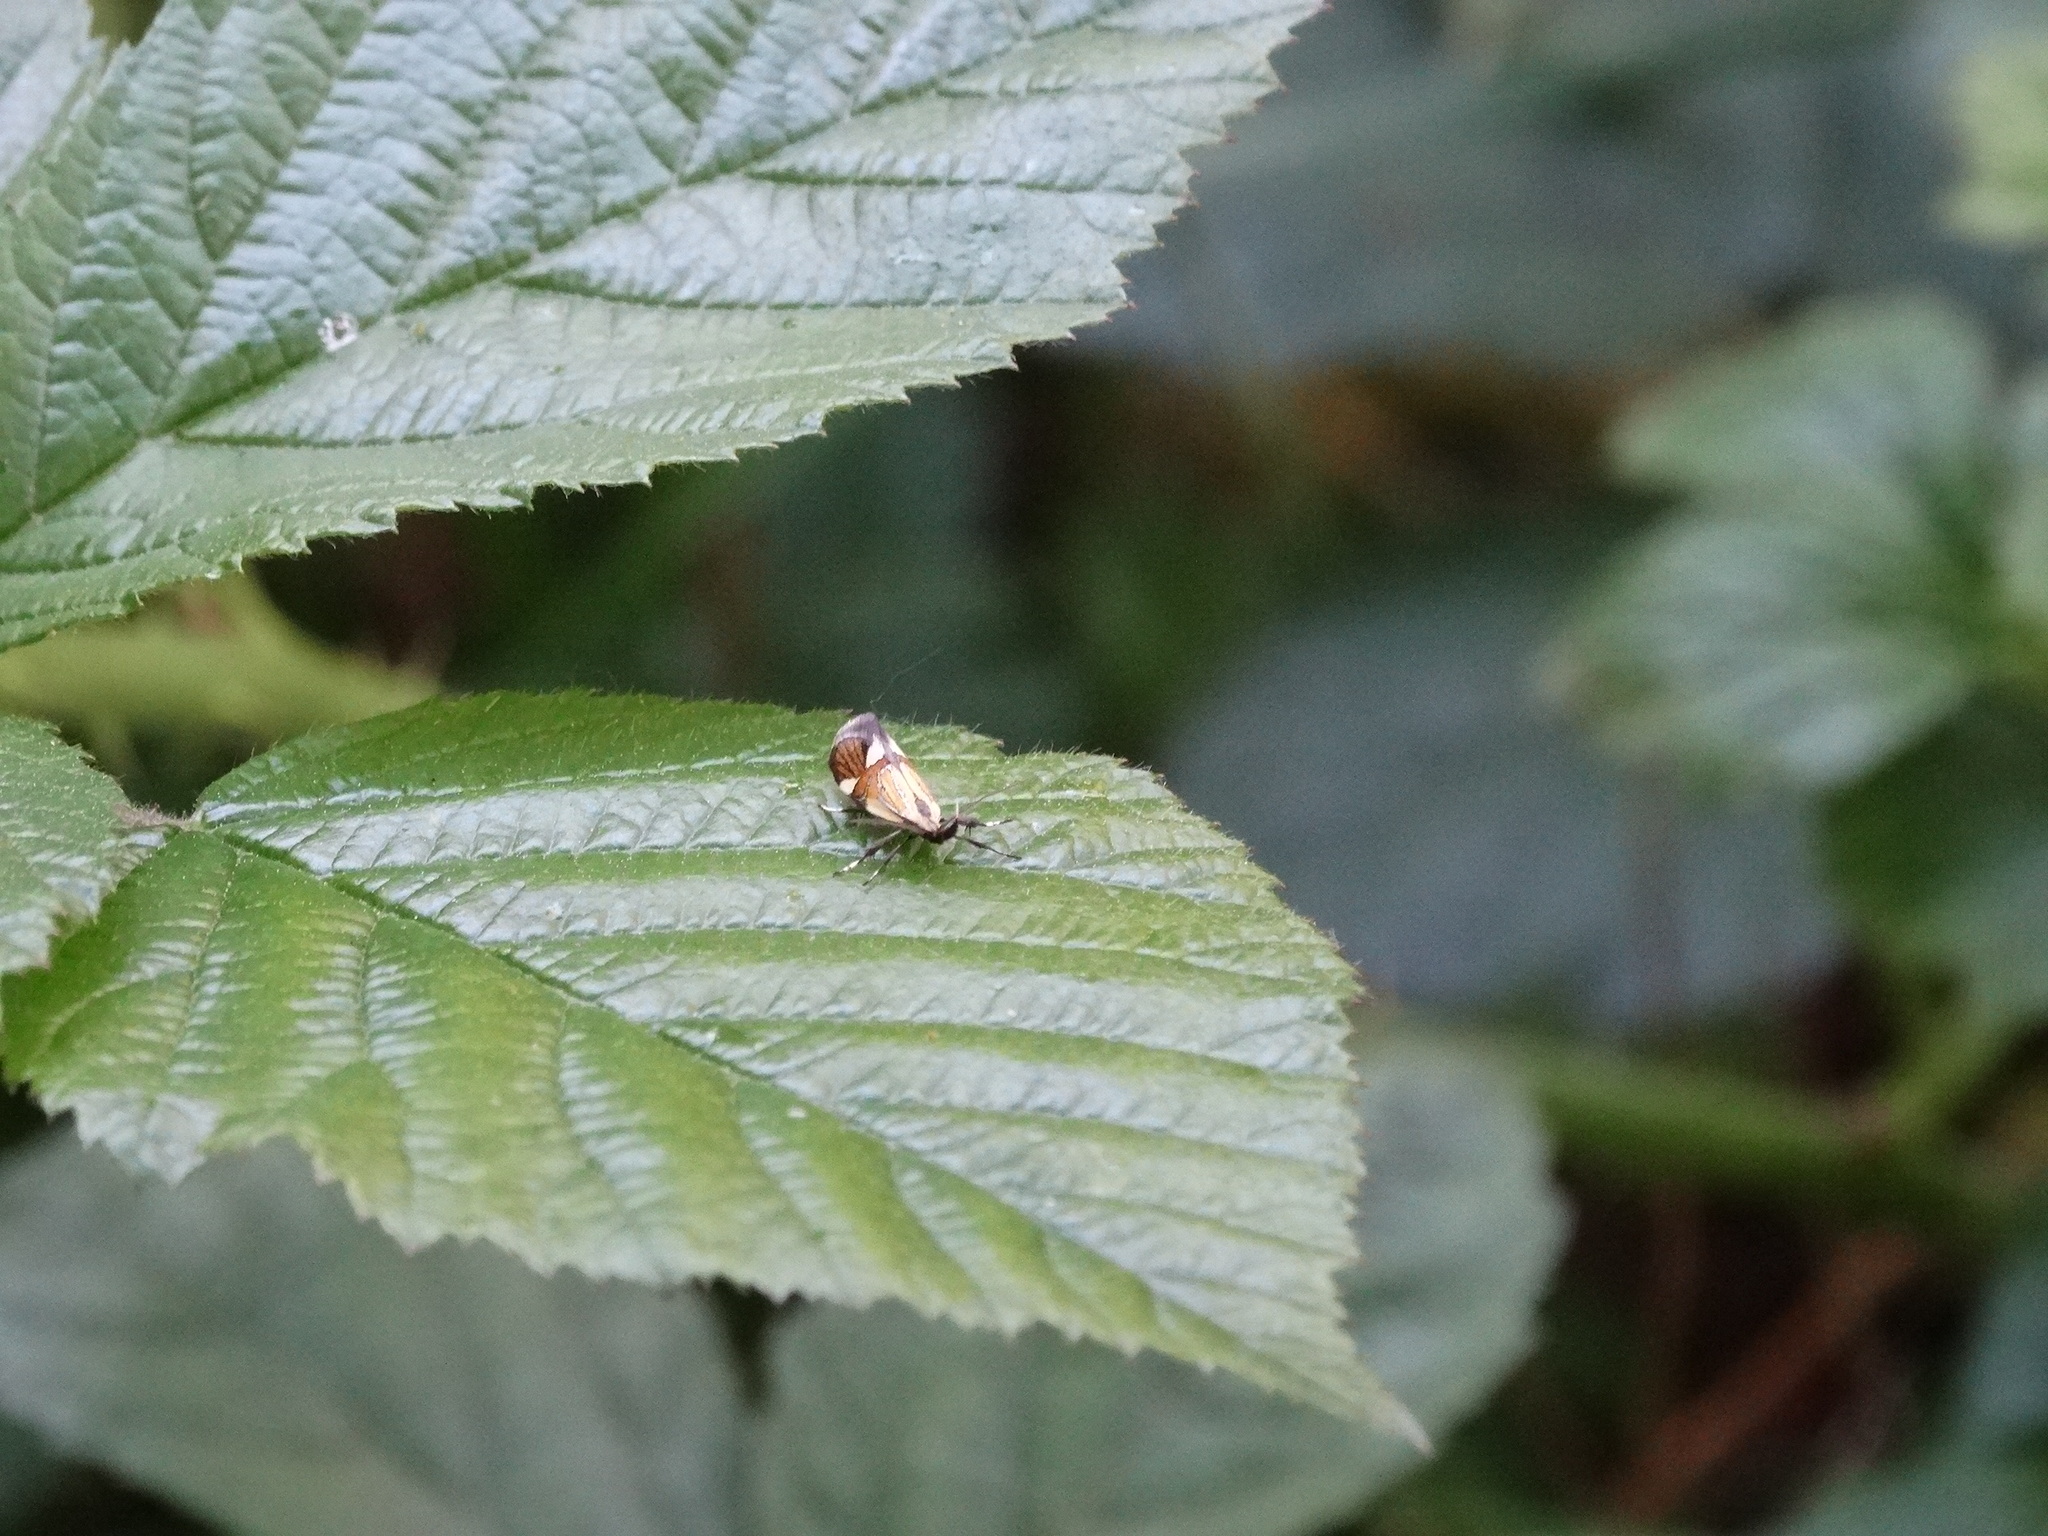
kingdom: Animalia
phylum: Arthropoda
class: Insecta
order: Lepidoptera
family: Oecophoridae
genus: Oecophora
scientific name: Oecophora Alabonia geoffrella
